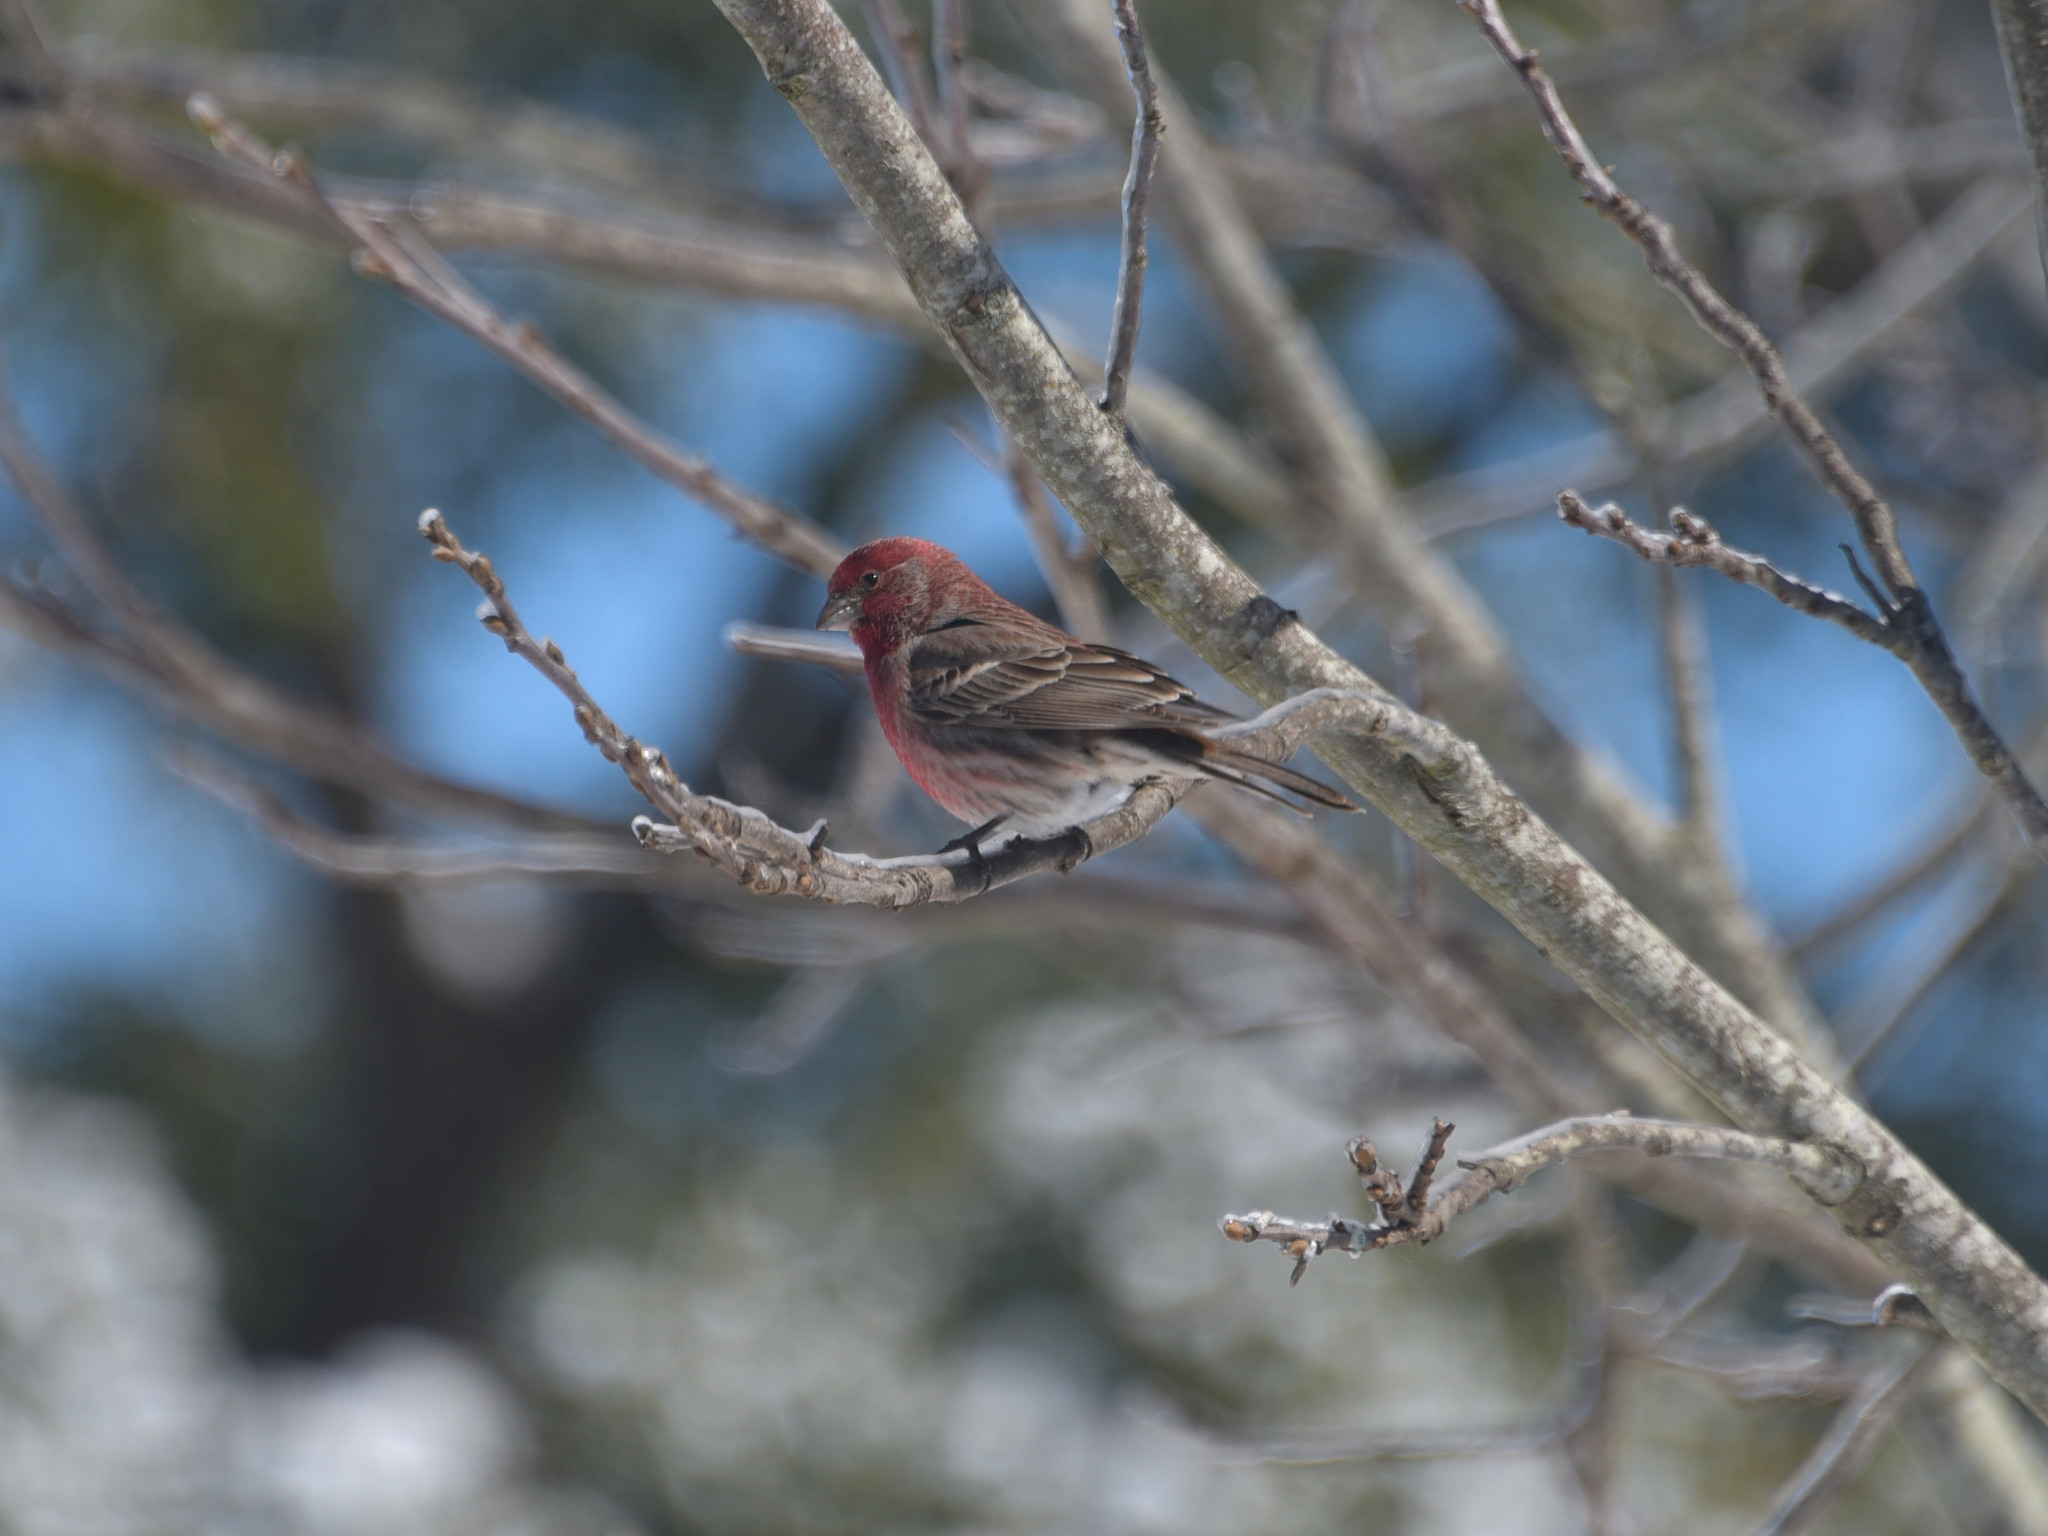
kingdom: Animalia
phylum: Chordata
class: Aves
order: Passeriformes
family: Fringillidae
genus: Haemorhous
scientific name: Haemorhous mexicanus
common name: House finch
